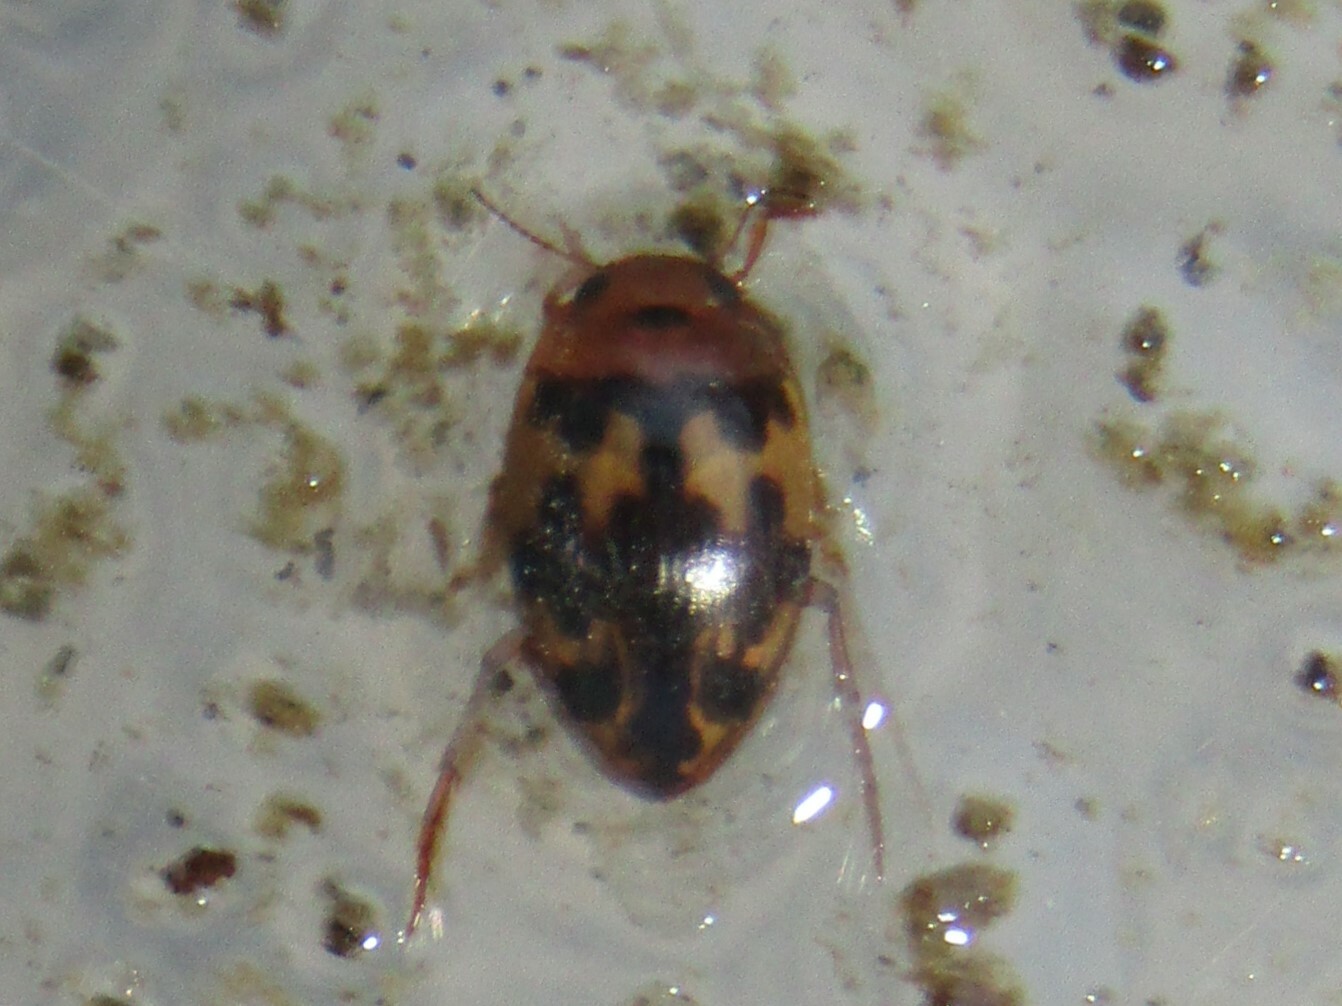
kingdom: Animalia
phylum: Arthropoda
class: Insecta
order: Coleoptera
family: Dytiscidae
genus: Neoporus
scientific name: Neoporus
